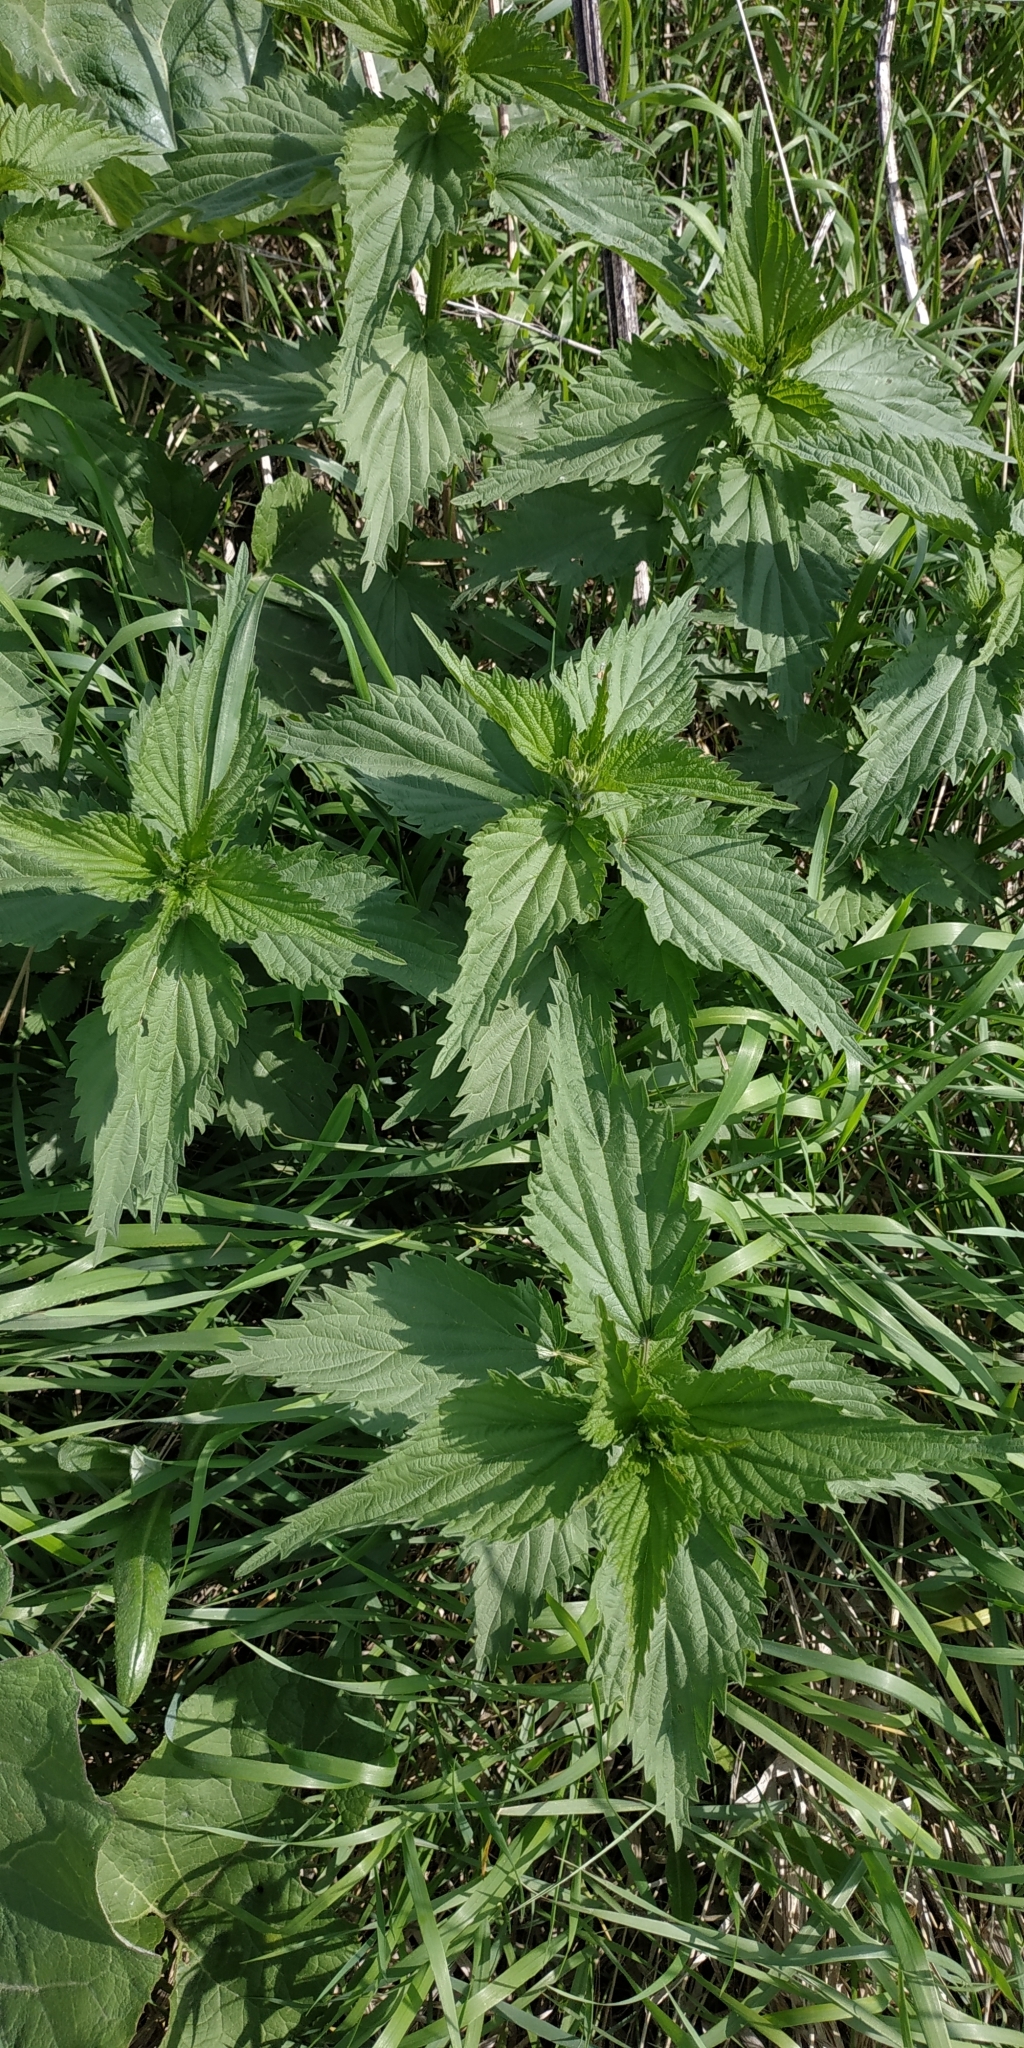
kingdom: Plantae
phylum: Tracheophyta
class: Magnoliopsida
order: Rosales
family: Urticaceae
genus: Urtica
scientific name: Urtica dioica
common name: Common nettle
